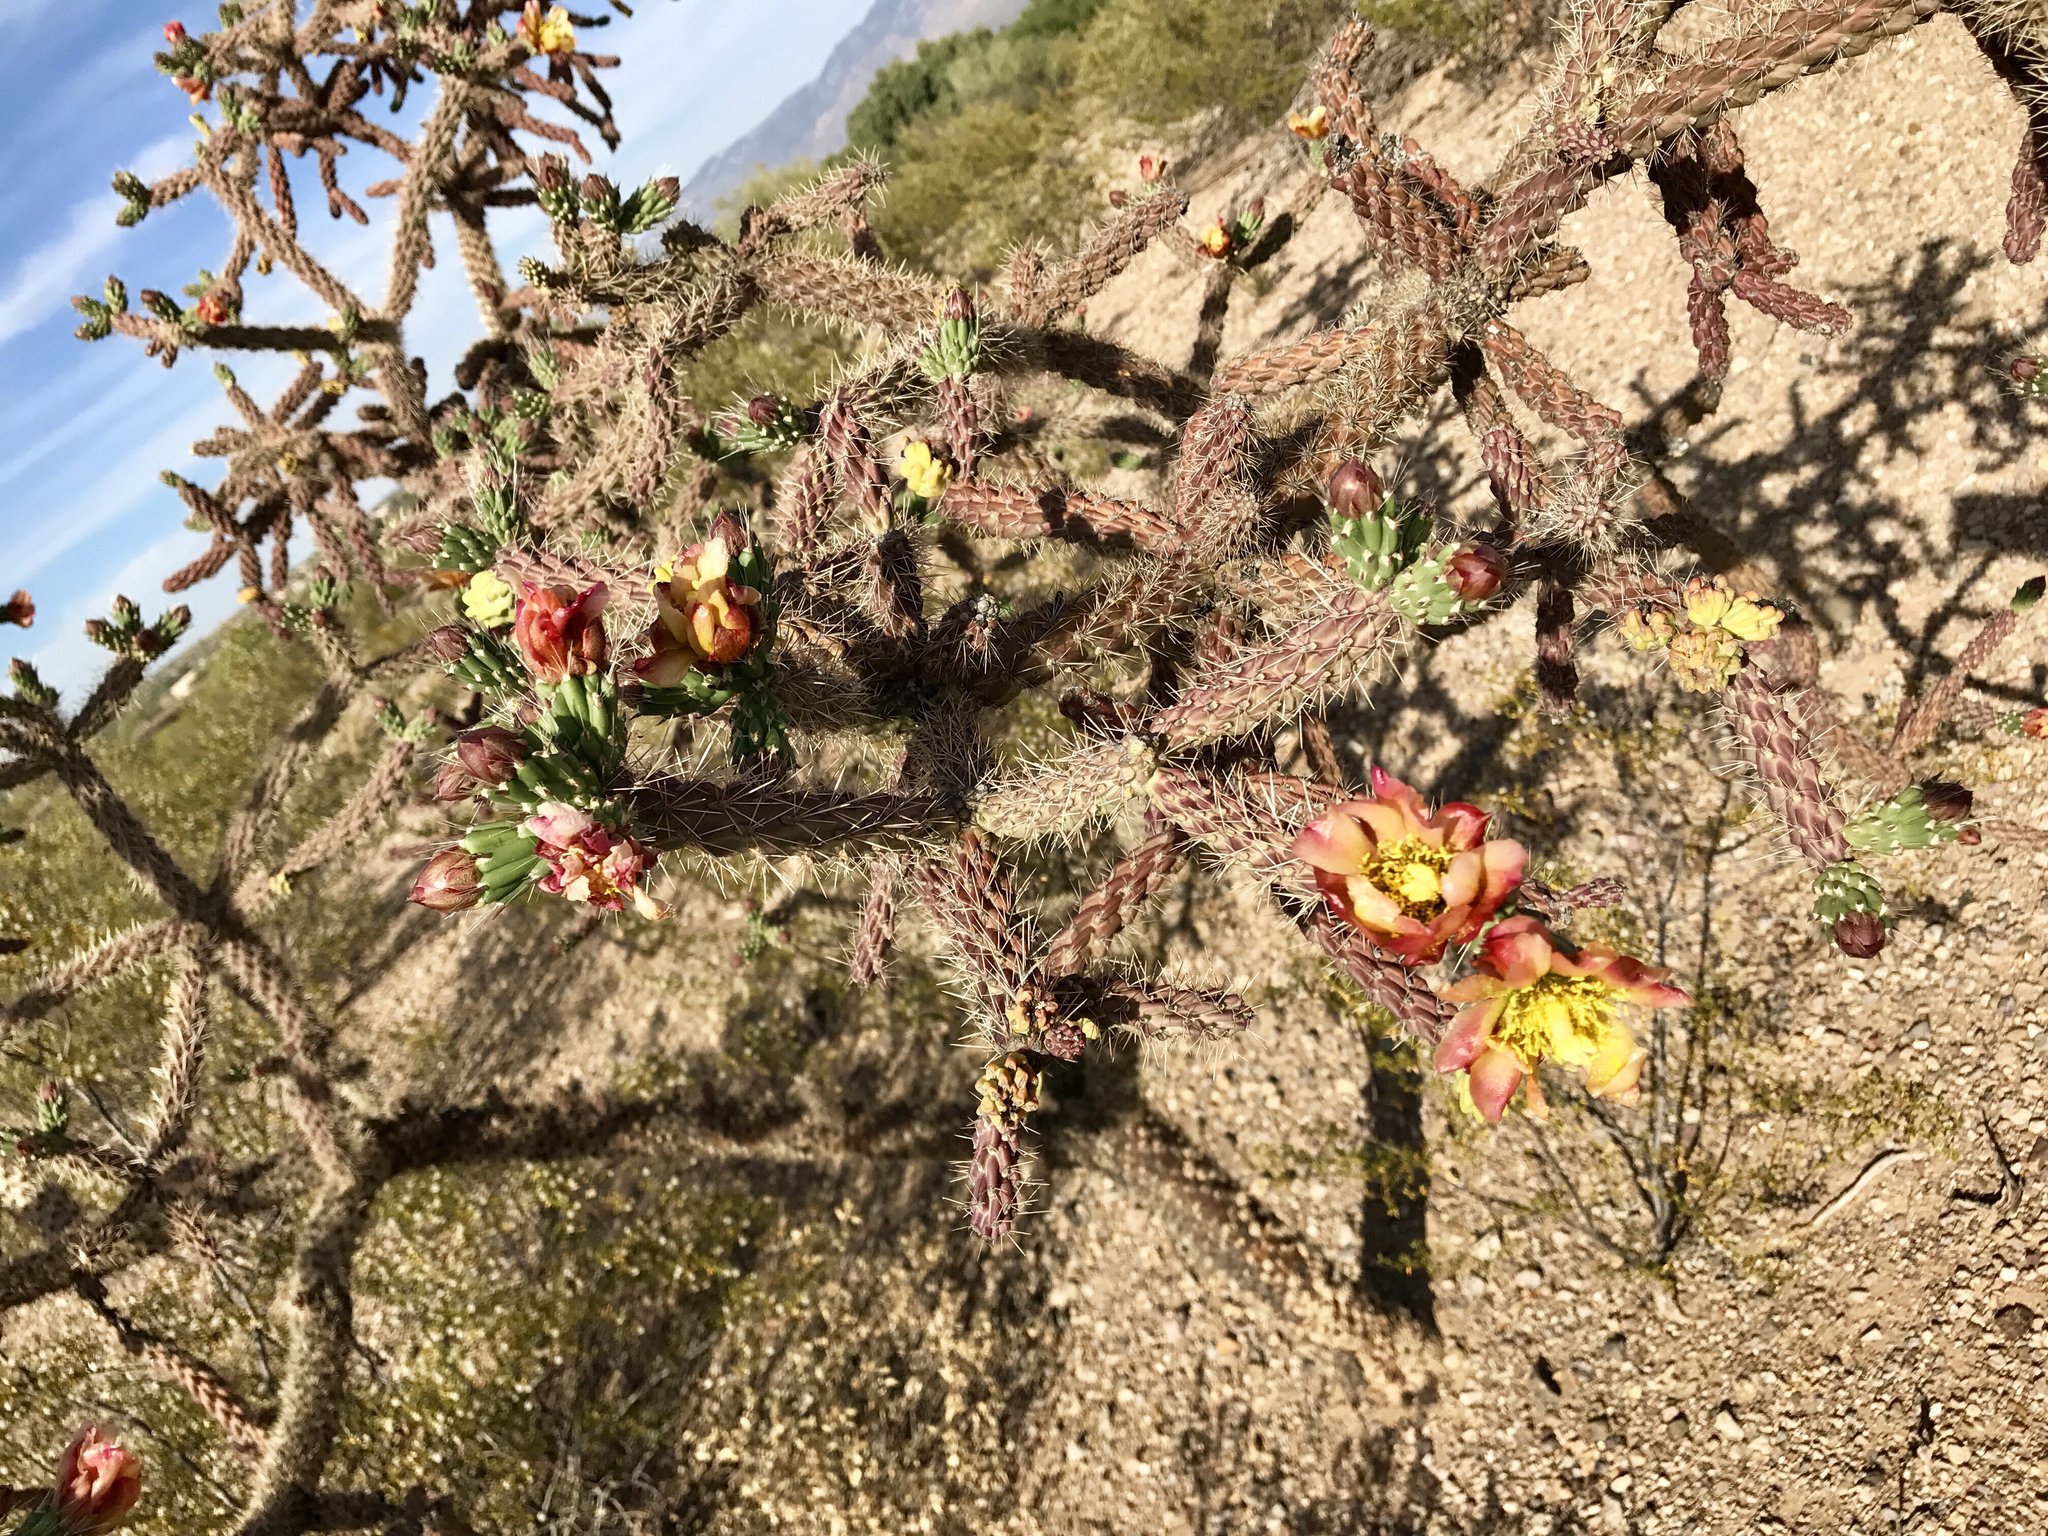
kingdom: Plantae
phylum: Tracheophyta
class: Magnoliopsida
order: Caryophyllales
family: Cactaceae
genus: Cylindropuntia
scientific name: Cylindropuntia thurberi
